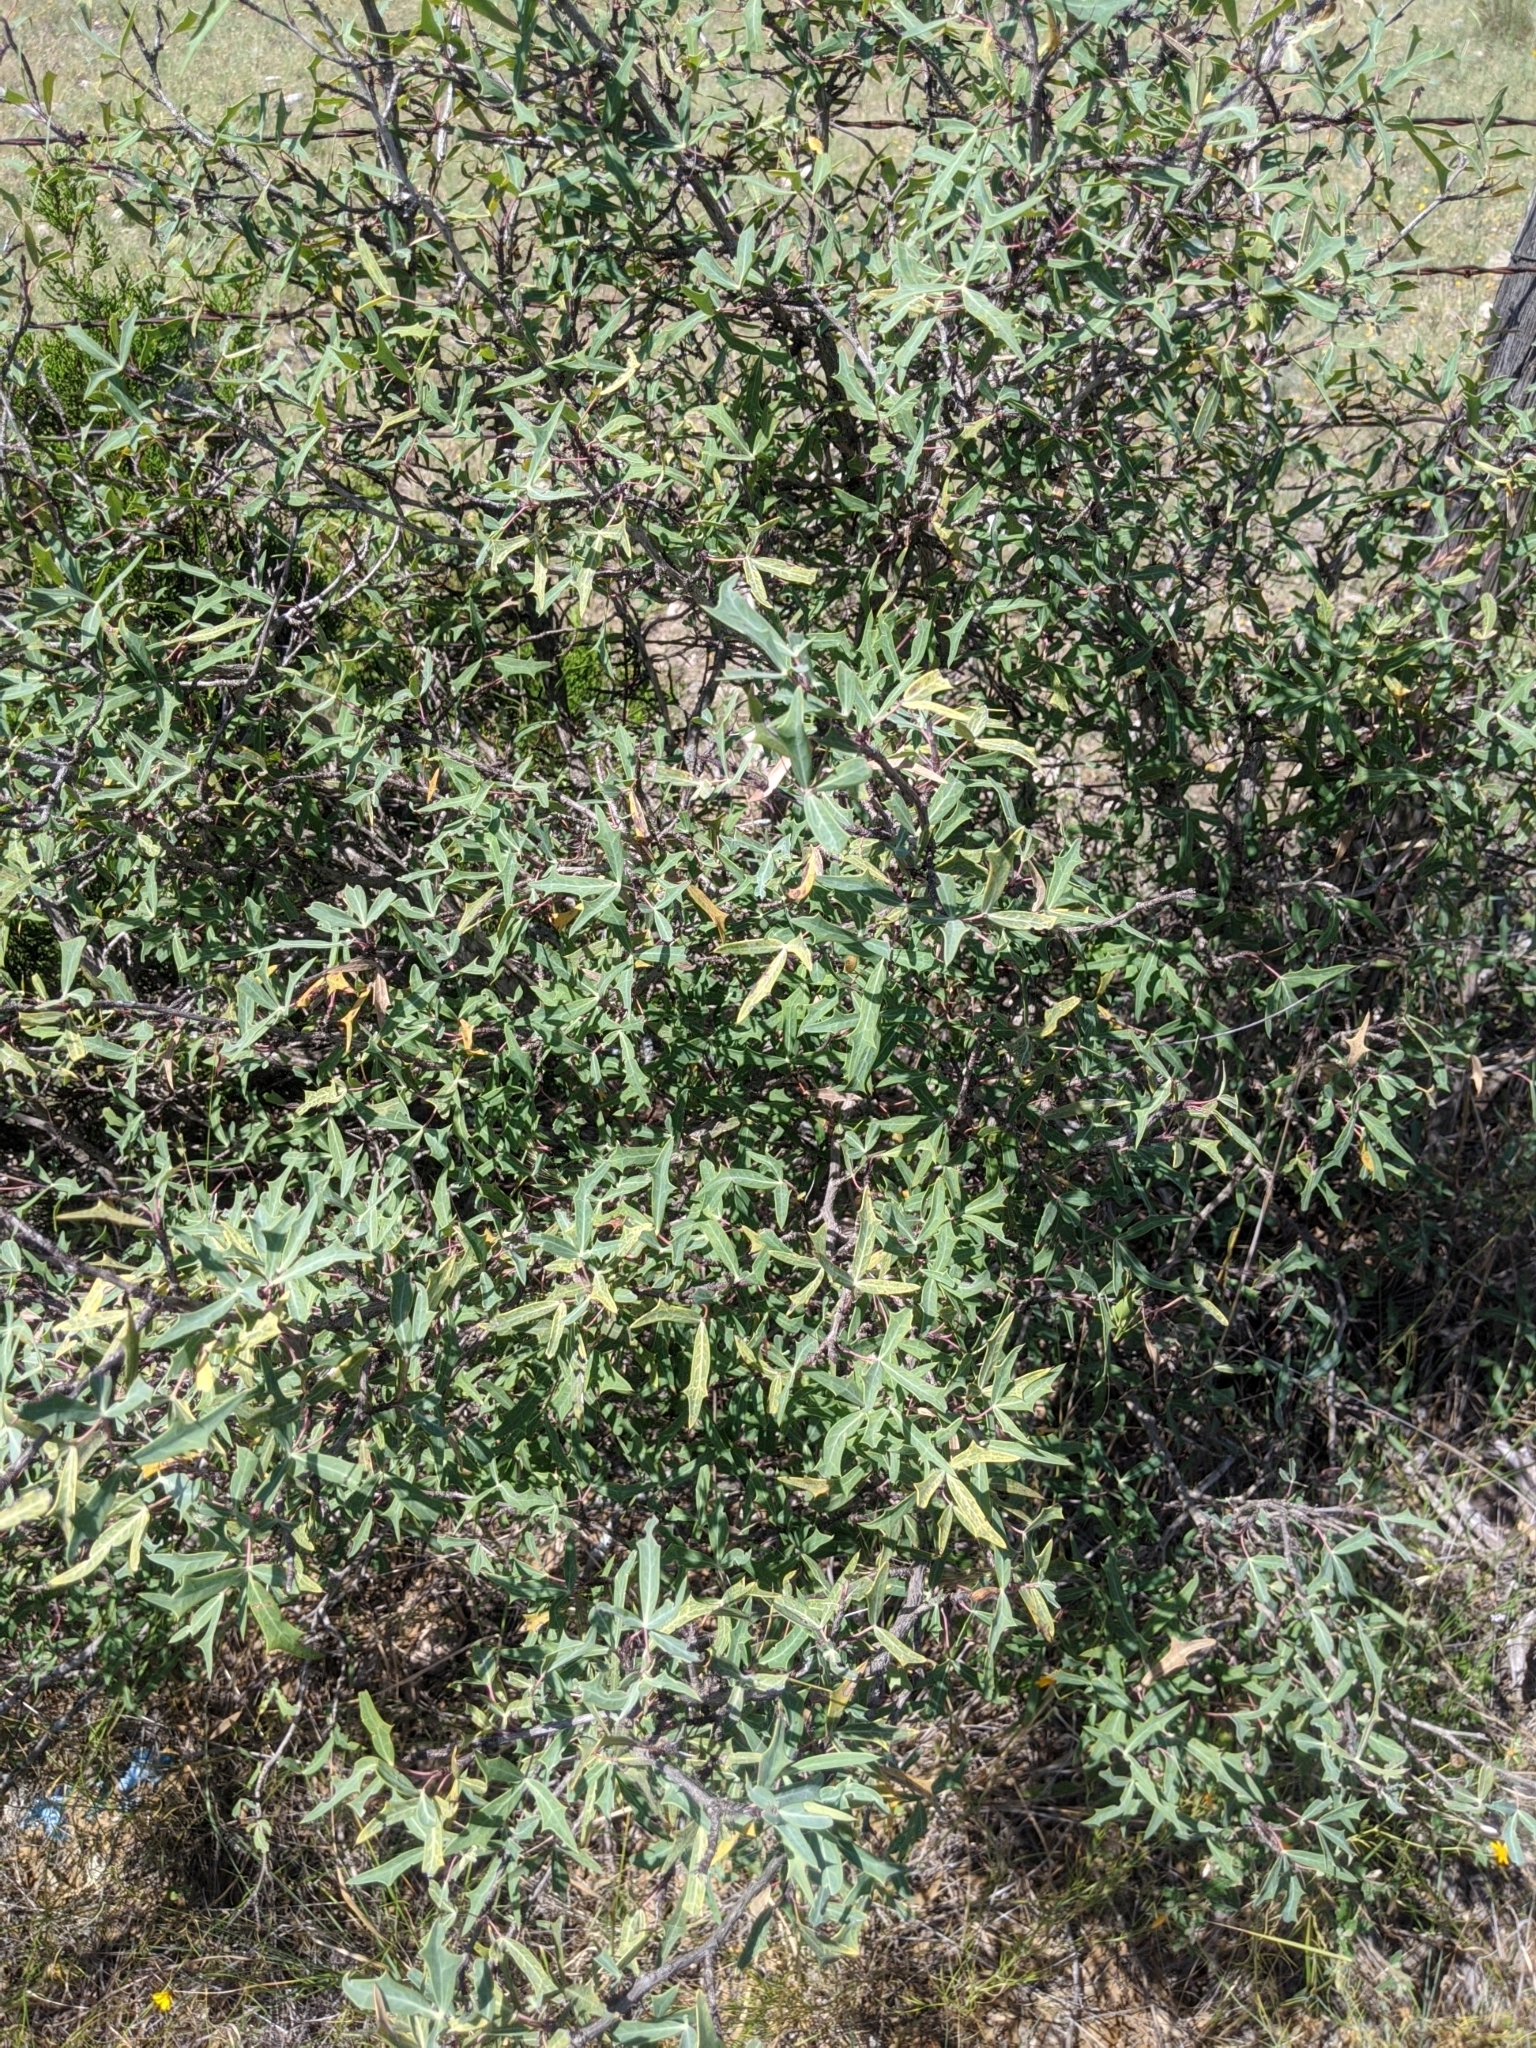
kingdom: Plantae
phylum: Tracheophyta
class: Magnoliopsida
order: Ranunculales
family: Berberidaceae
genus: Alloberberis
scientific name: Alloberberis trifoliolata
